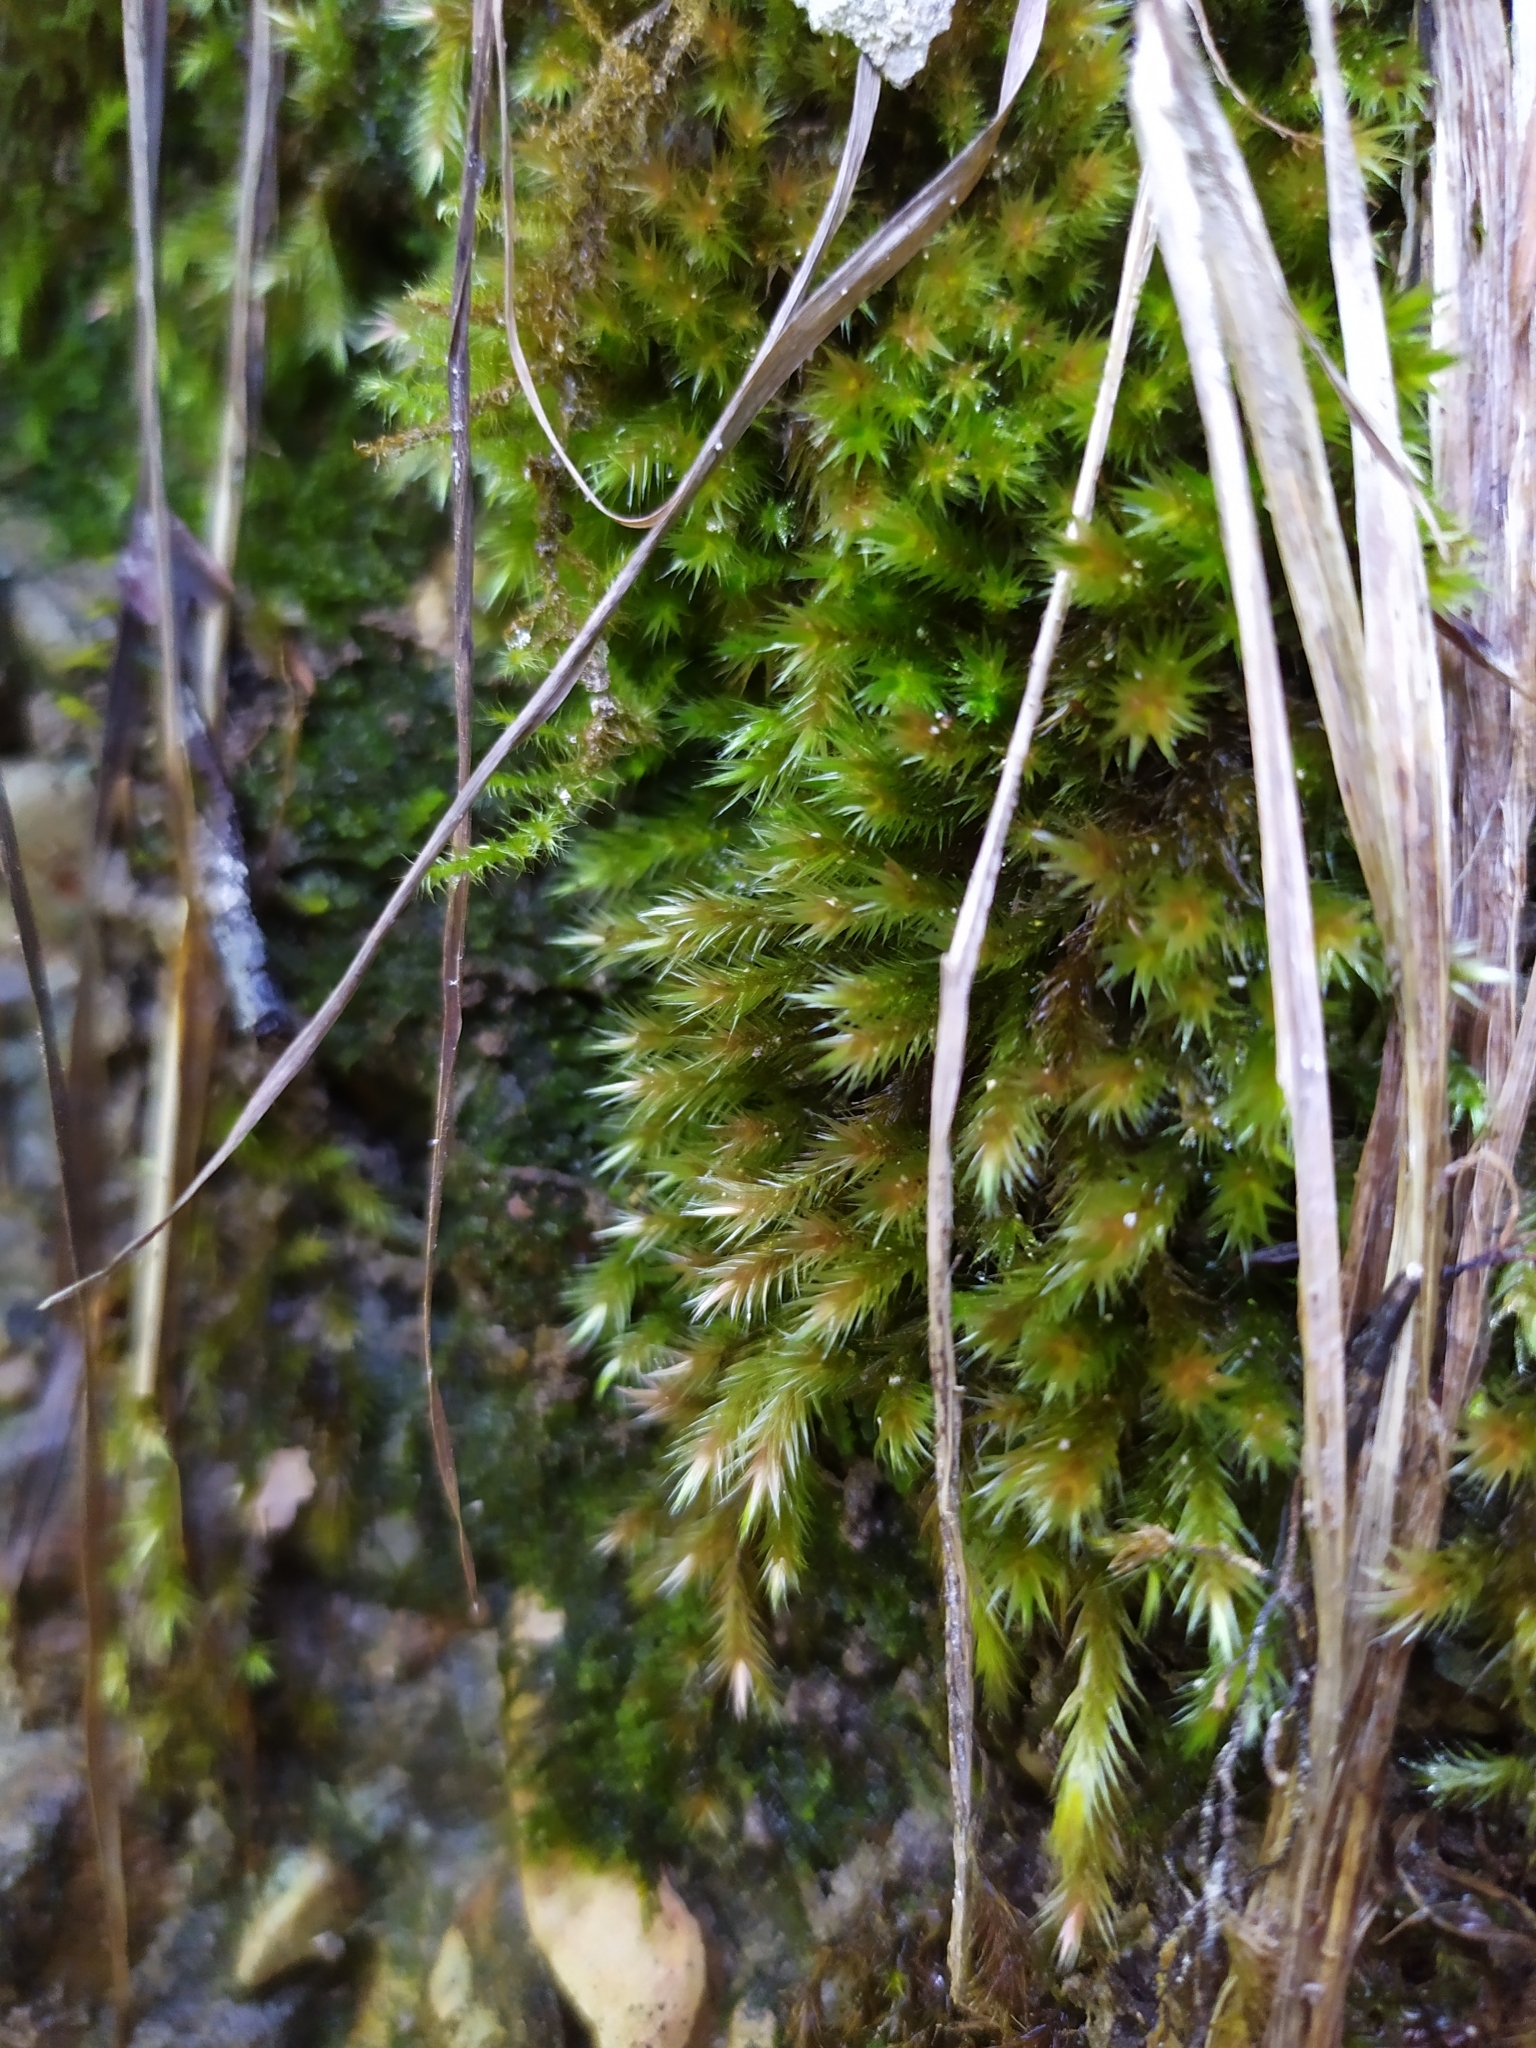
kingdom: Plantae
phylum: Bryophyta
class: Bryopsida
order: Hypnales
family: Plagiotheciaceae
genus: Orthothecium
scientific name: Orthothecium rufescens
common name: Red leskea
